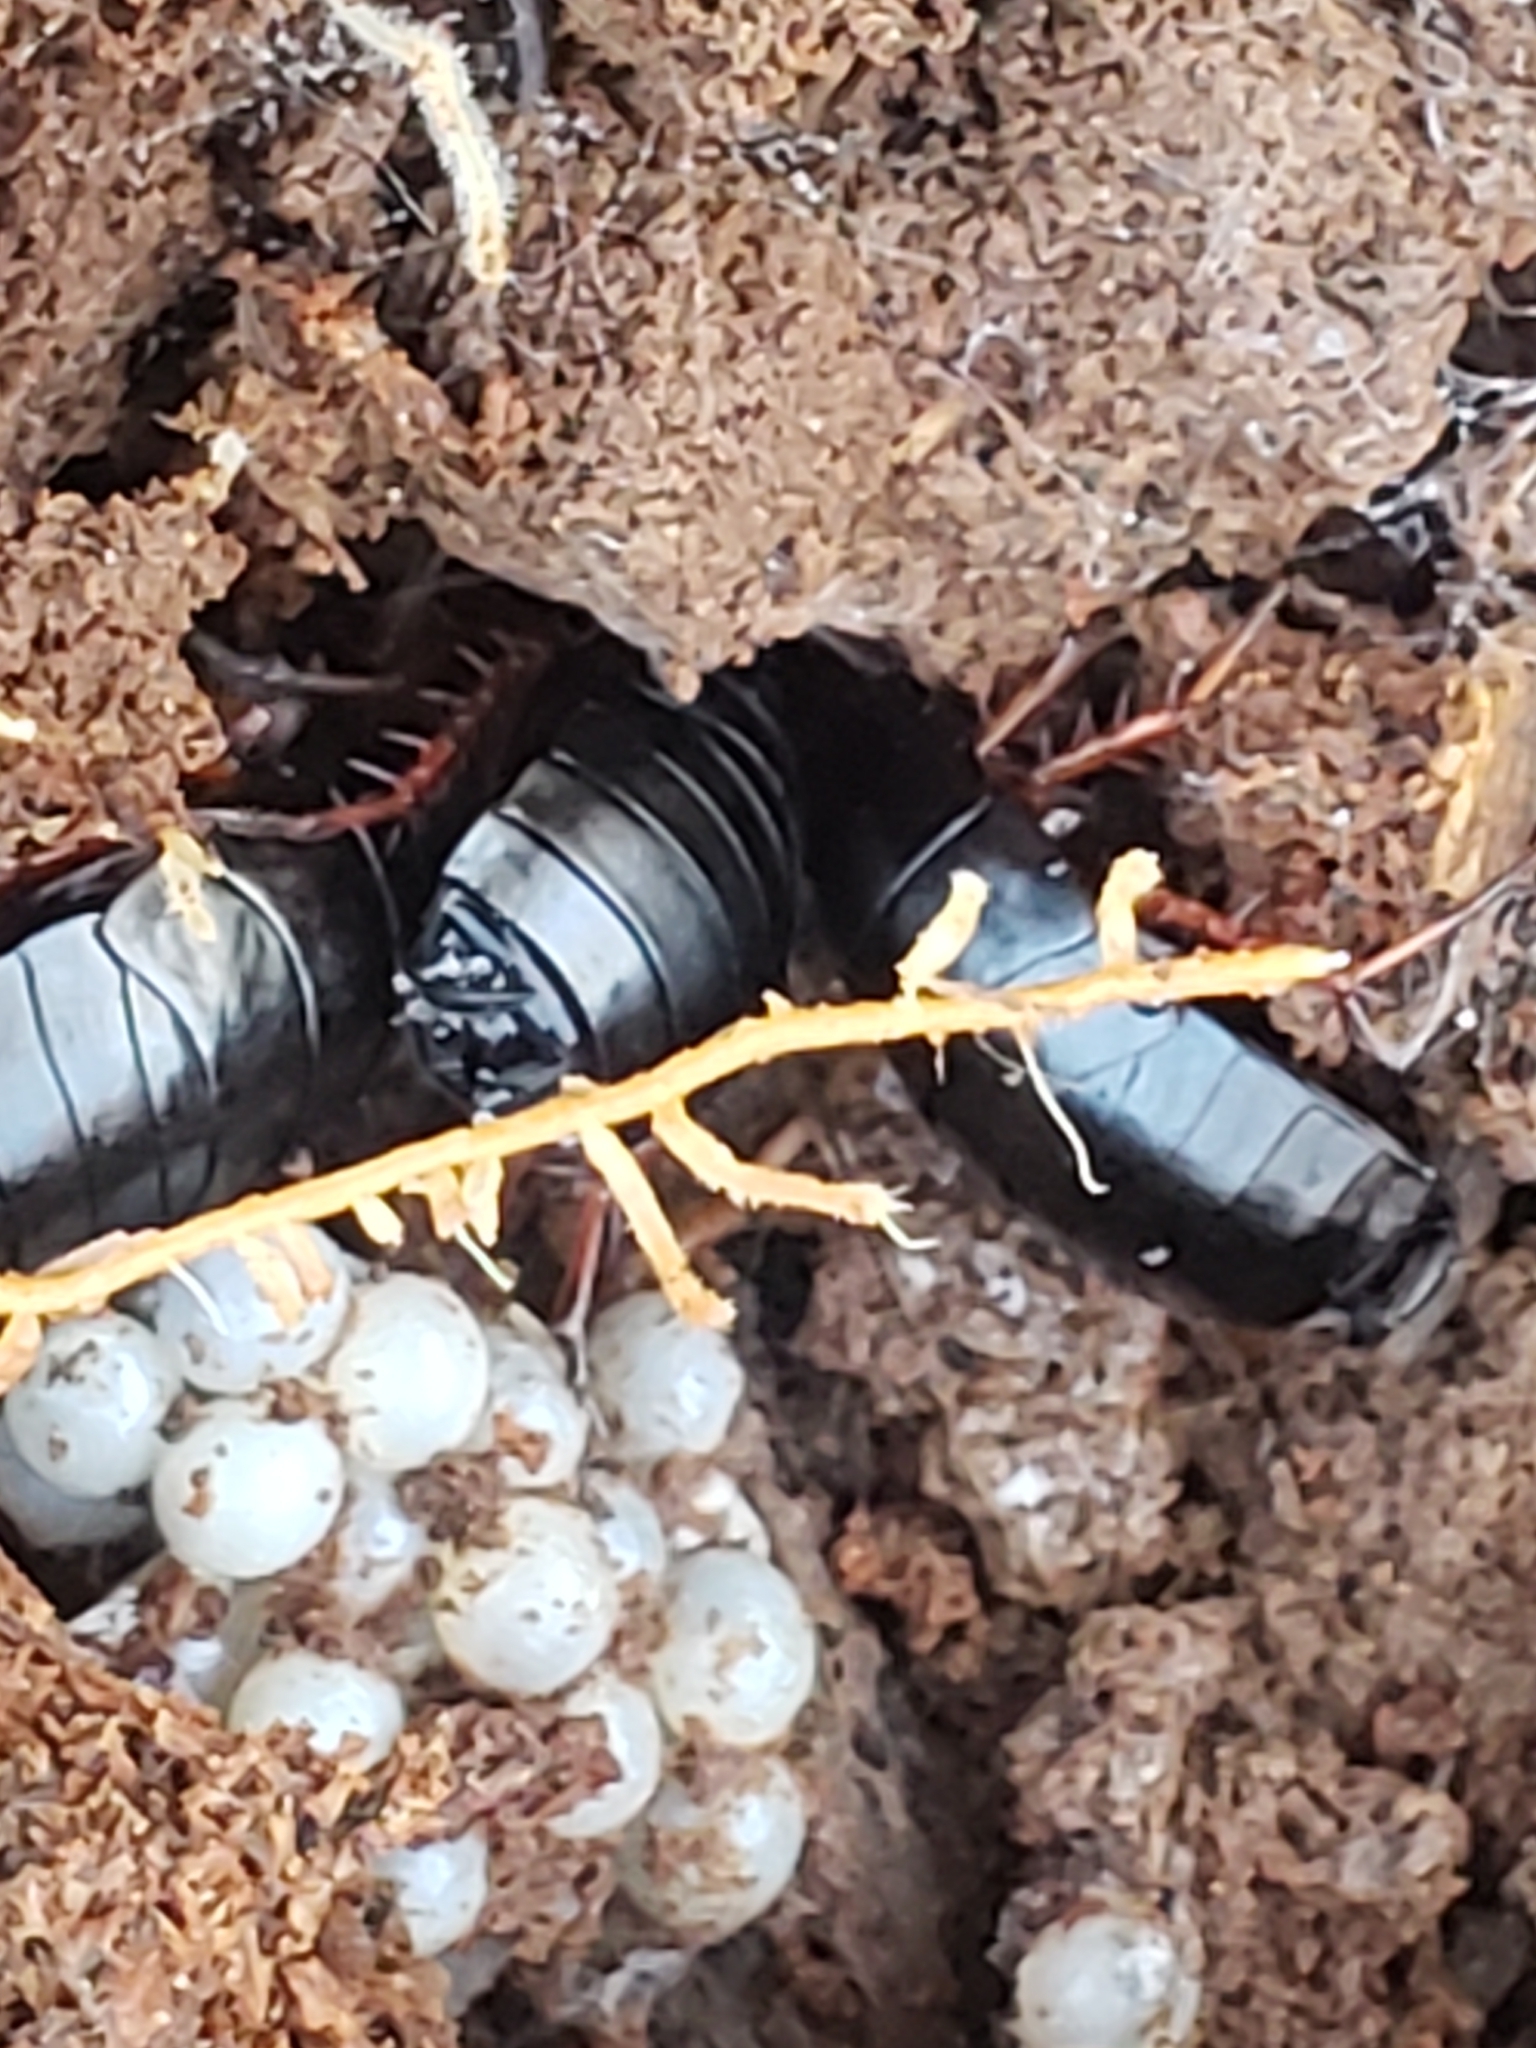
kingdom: Animalia
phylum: Arthropoda
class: Insecta
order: Blattodea
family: Ectobiidae
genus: Ischnoptera
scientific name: Ischnoptera deropeltiformis
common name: Dark wood cockroach
